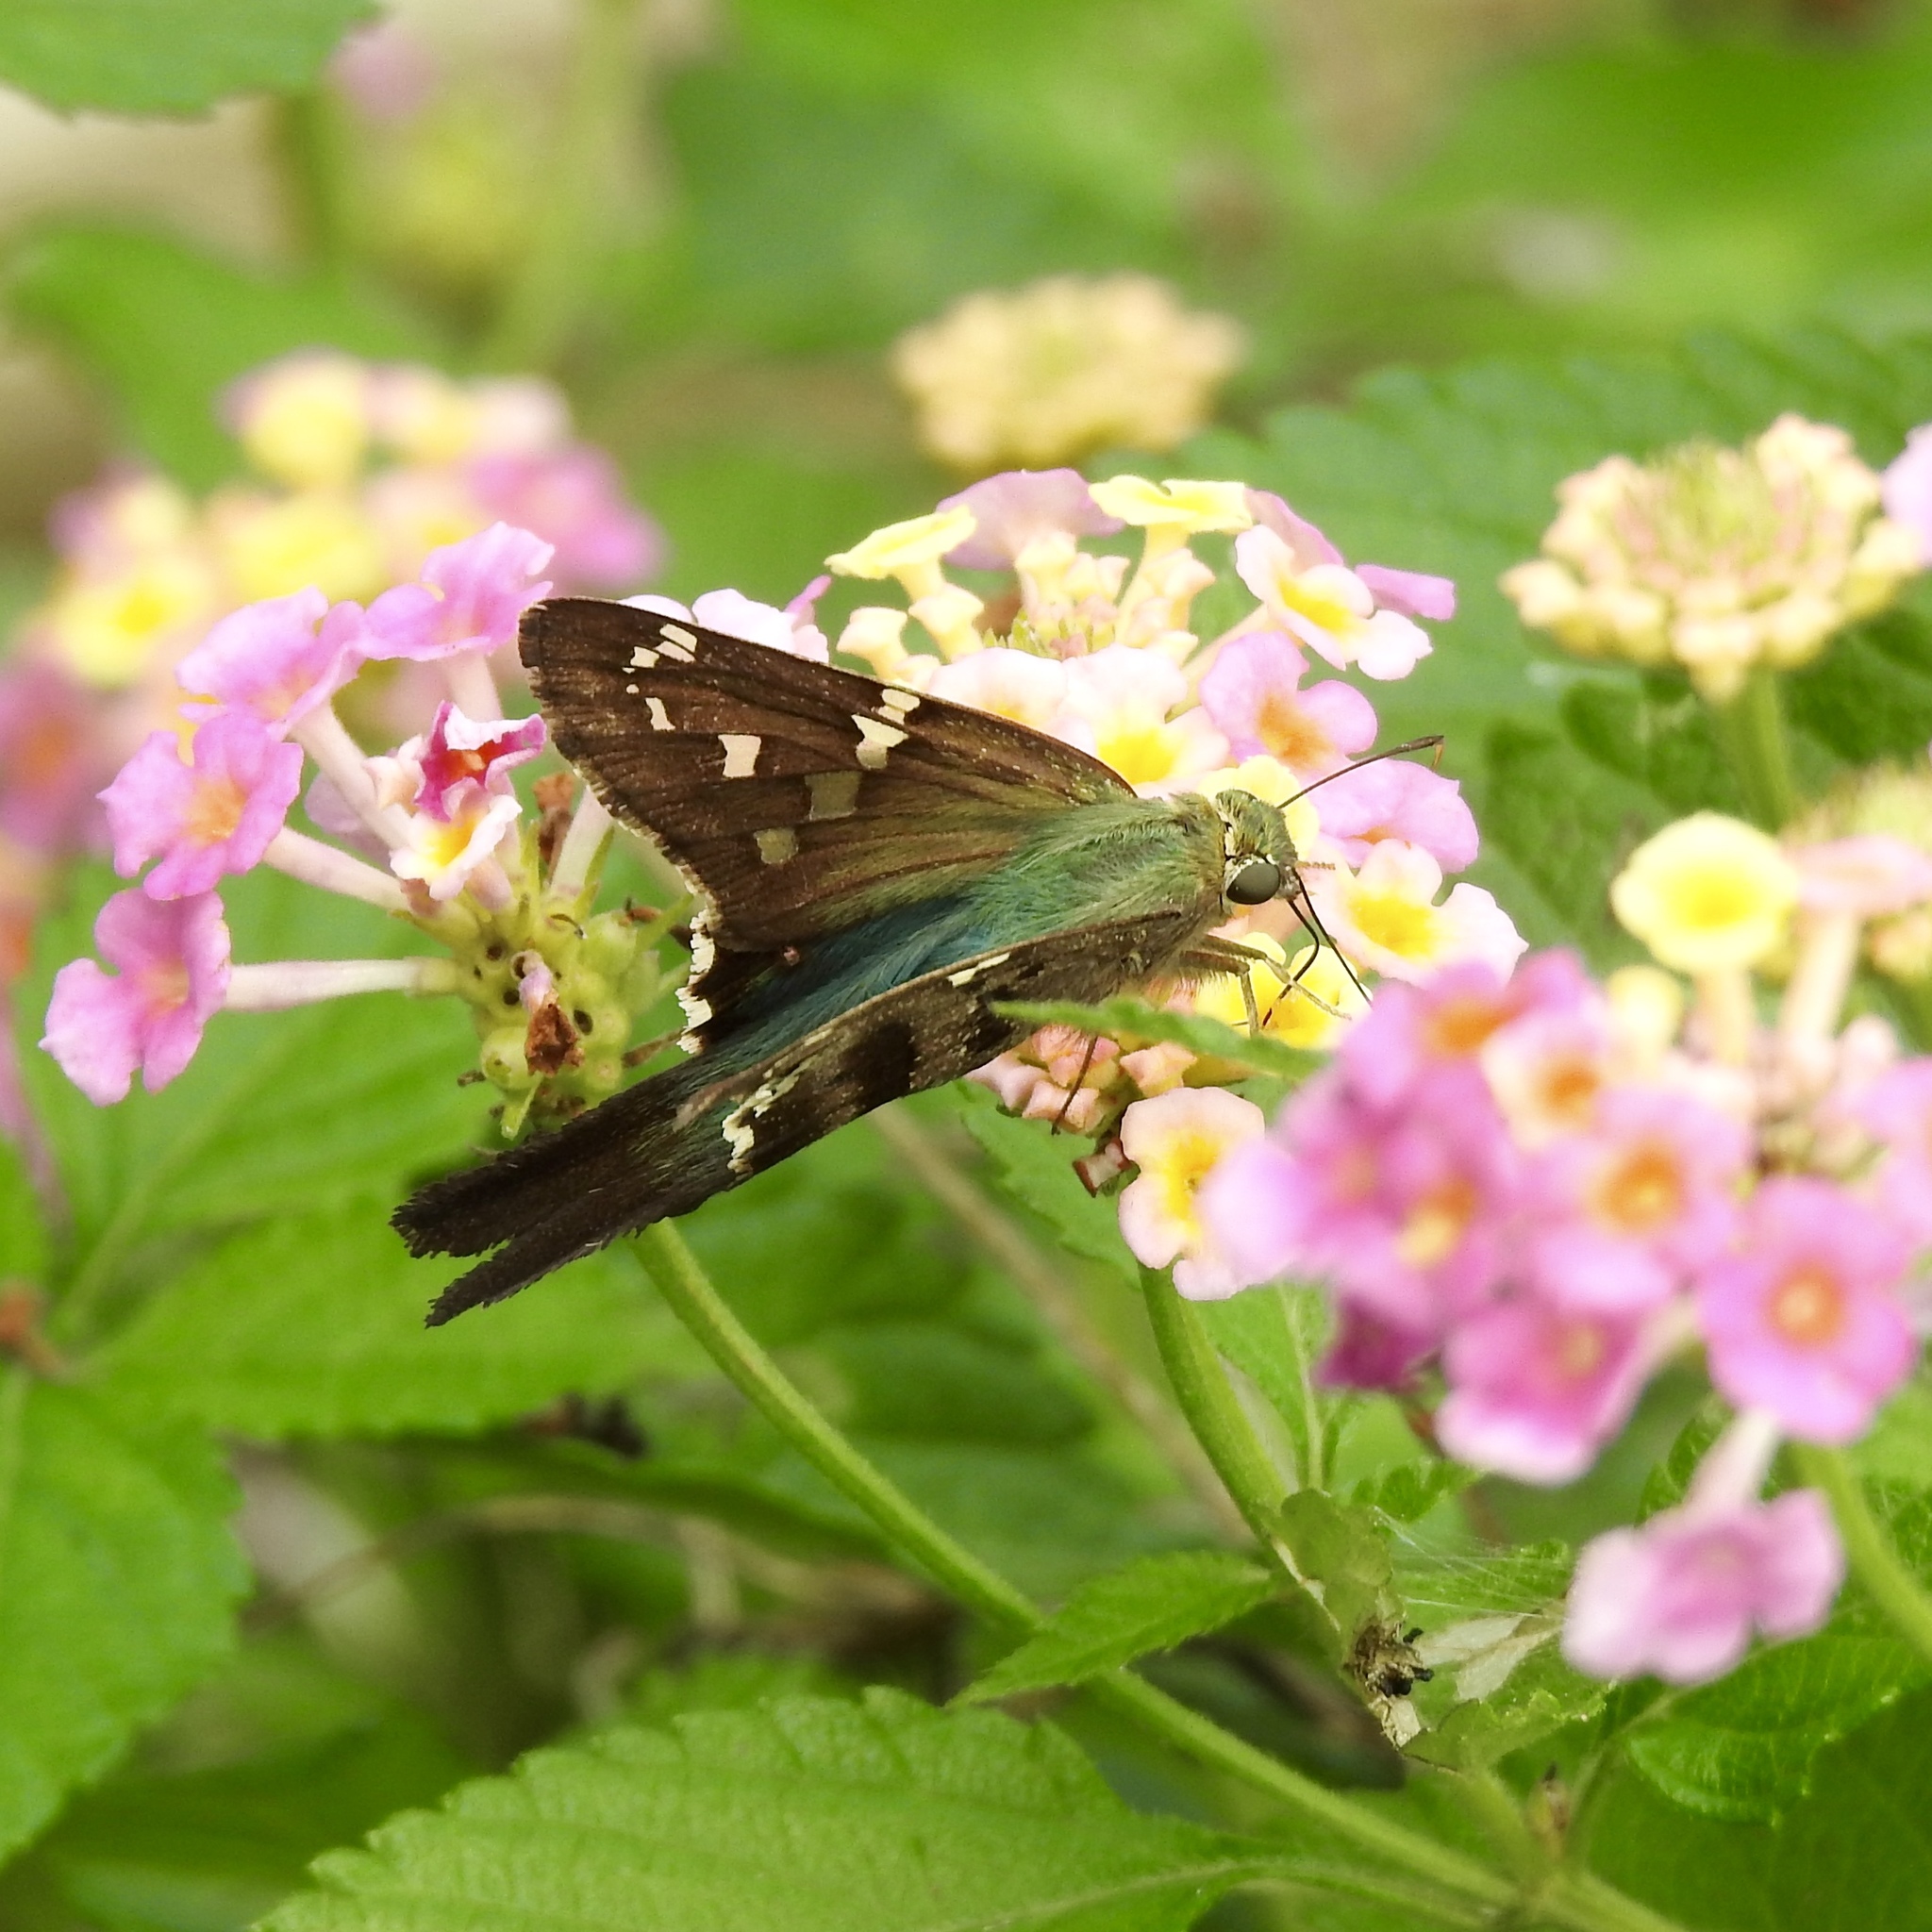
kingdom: Animalia
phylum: Arthropoda
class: Insecta
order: Lepidoptera
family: Hesperiidae
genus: Urbanus
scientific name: Urbanus proteus
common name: Long-tailed skipper
